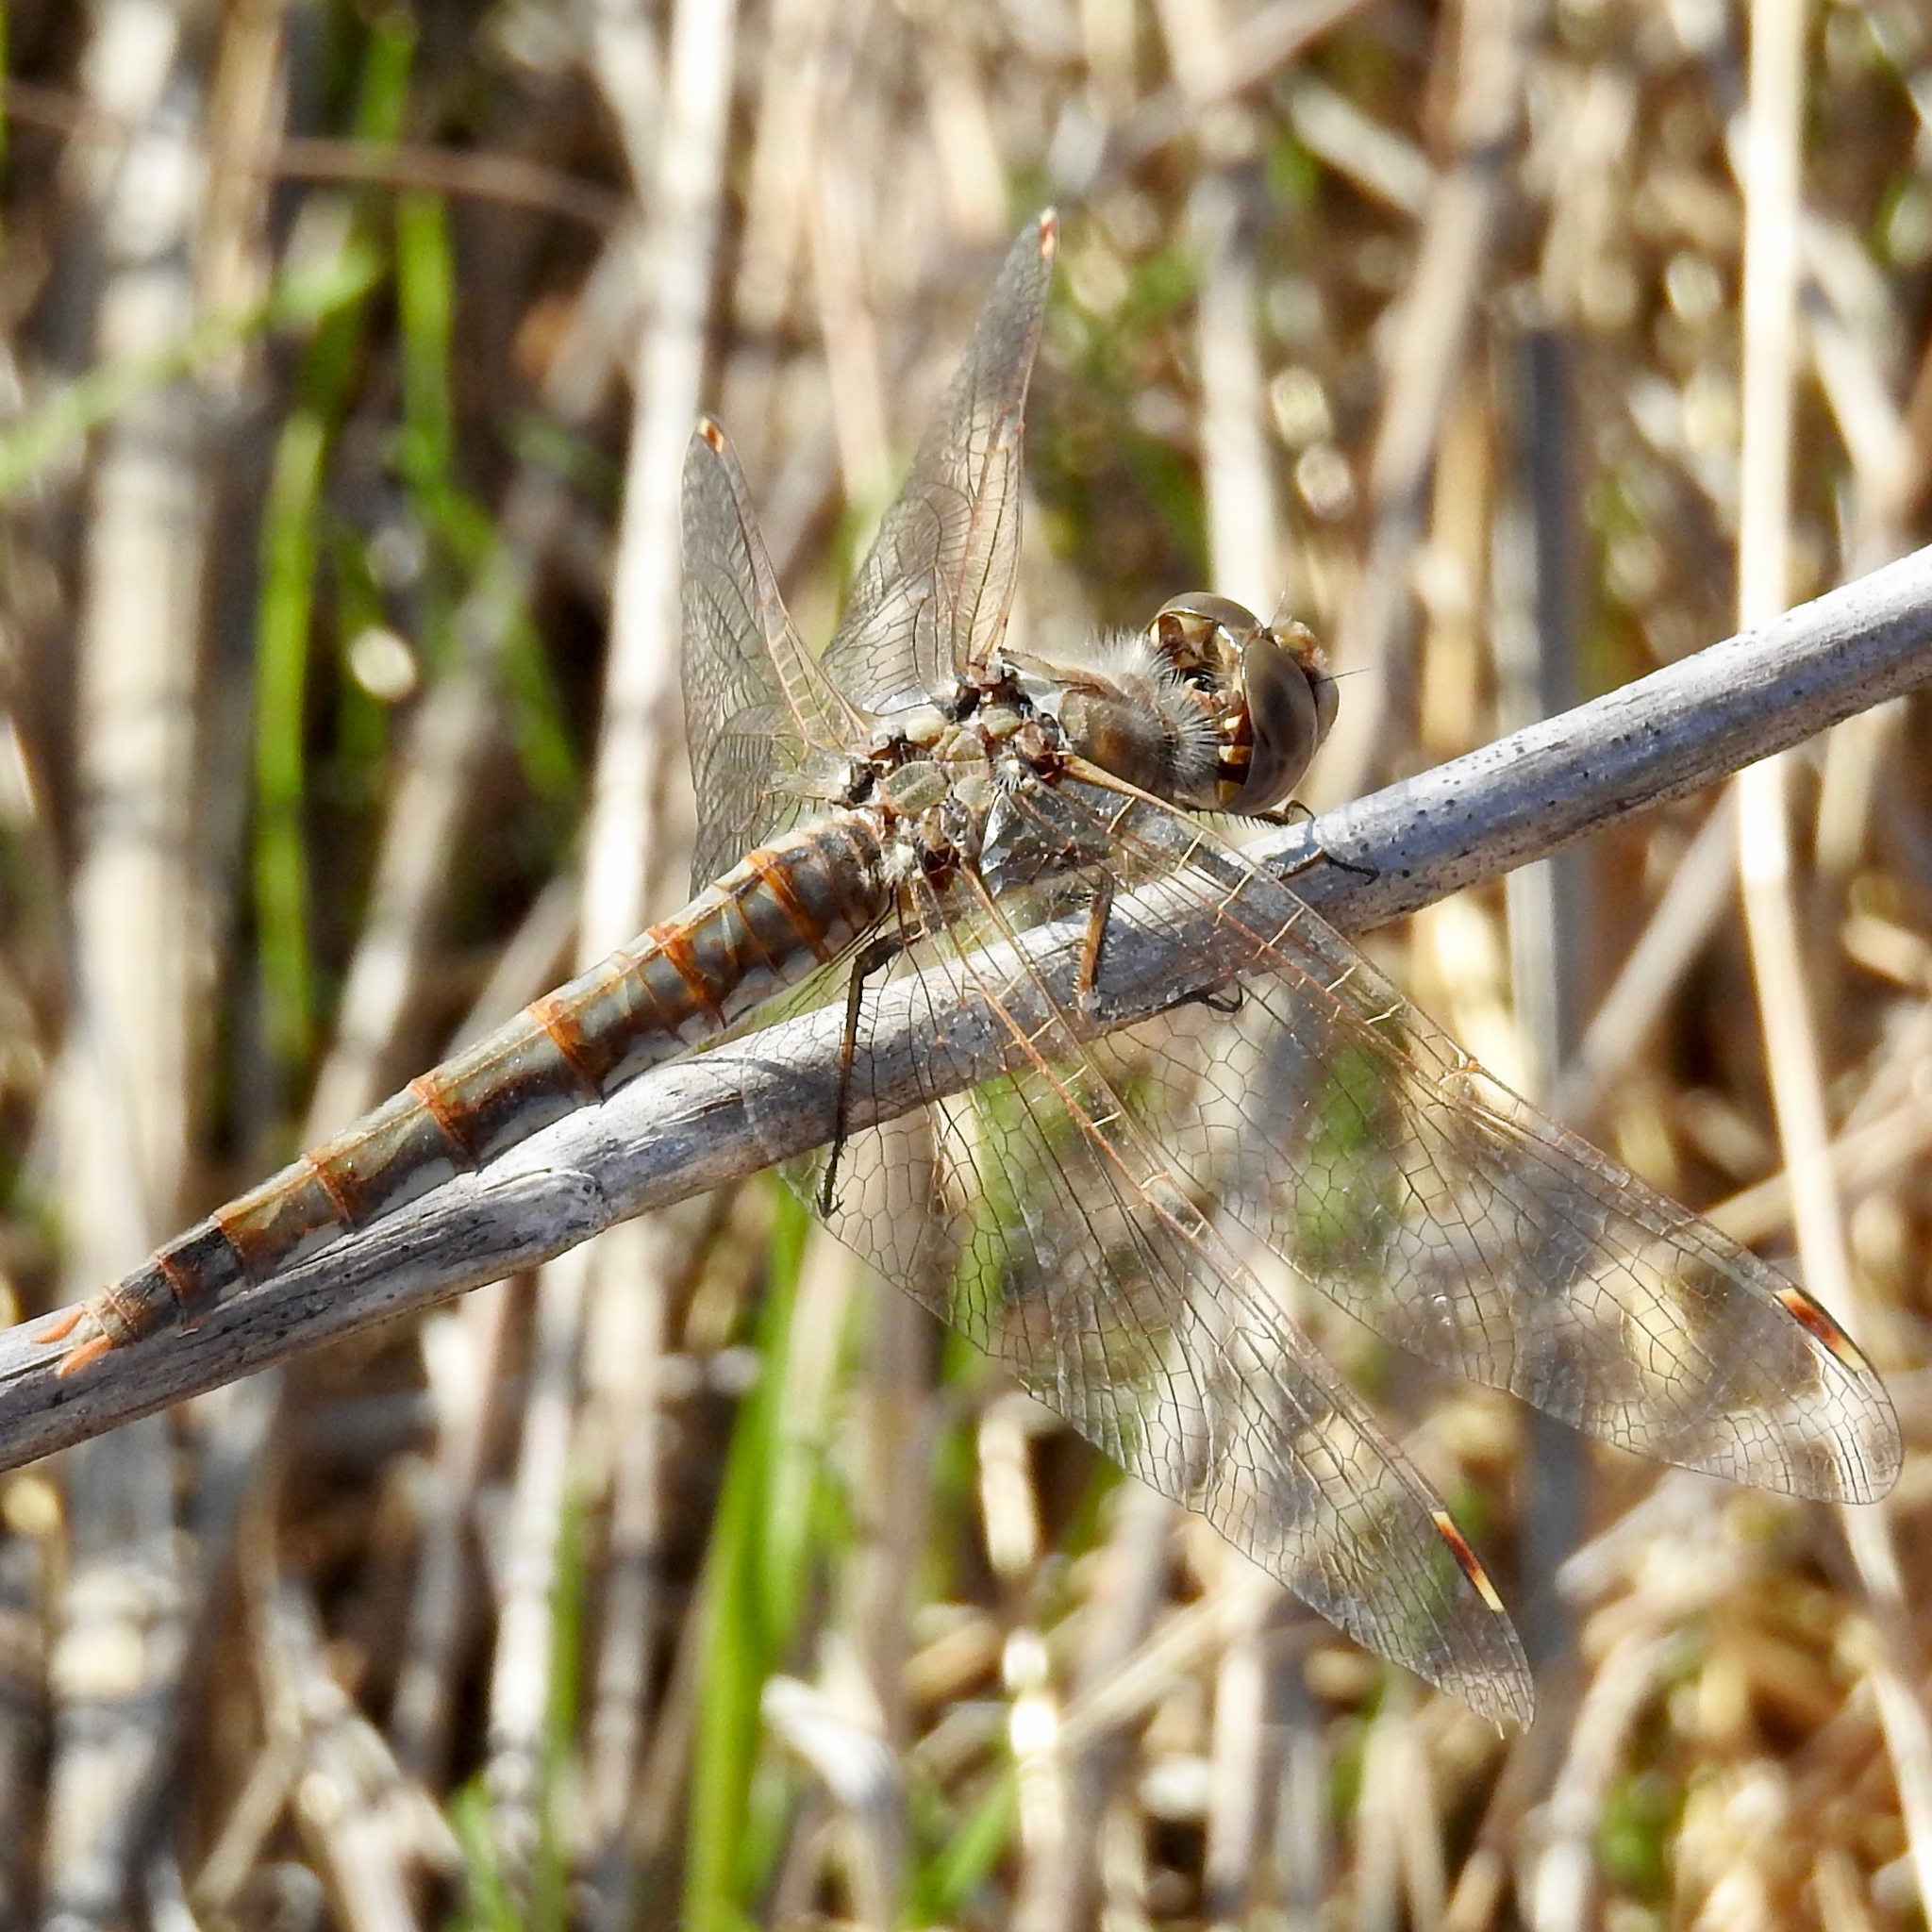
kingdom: Animalia
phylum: Arthropoda
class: Insecta
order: Odonata
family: Libellulidae
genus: Sympetrum
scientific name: Sympetrum corruptum
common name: Variegated meadowhawk
